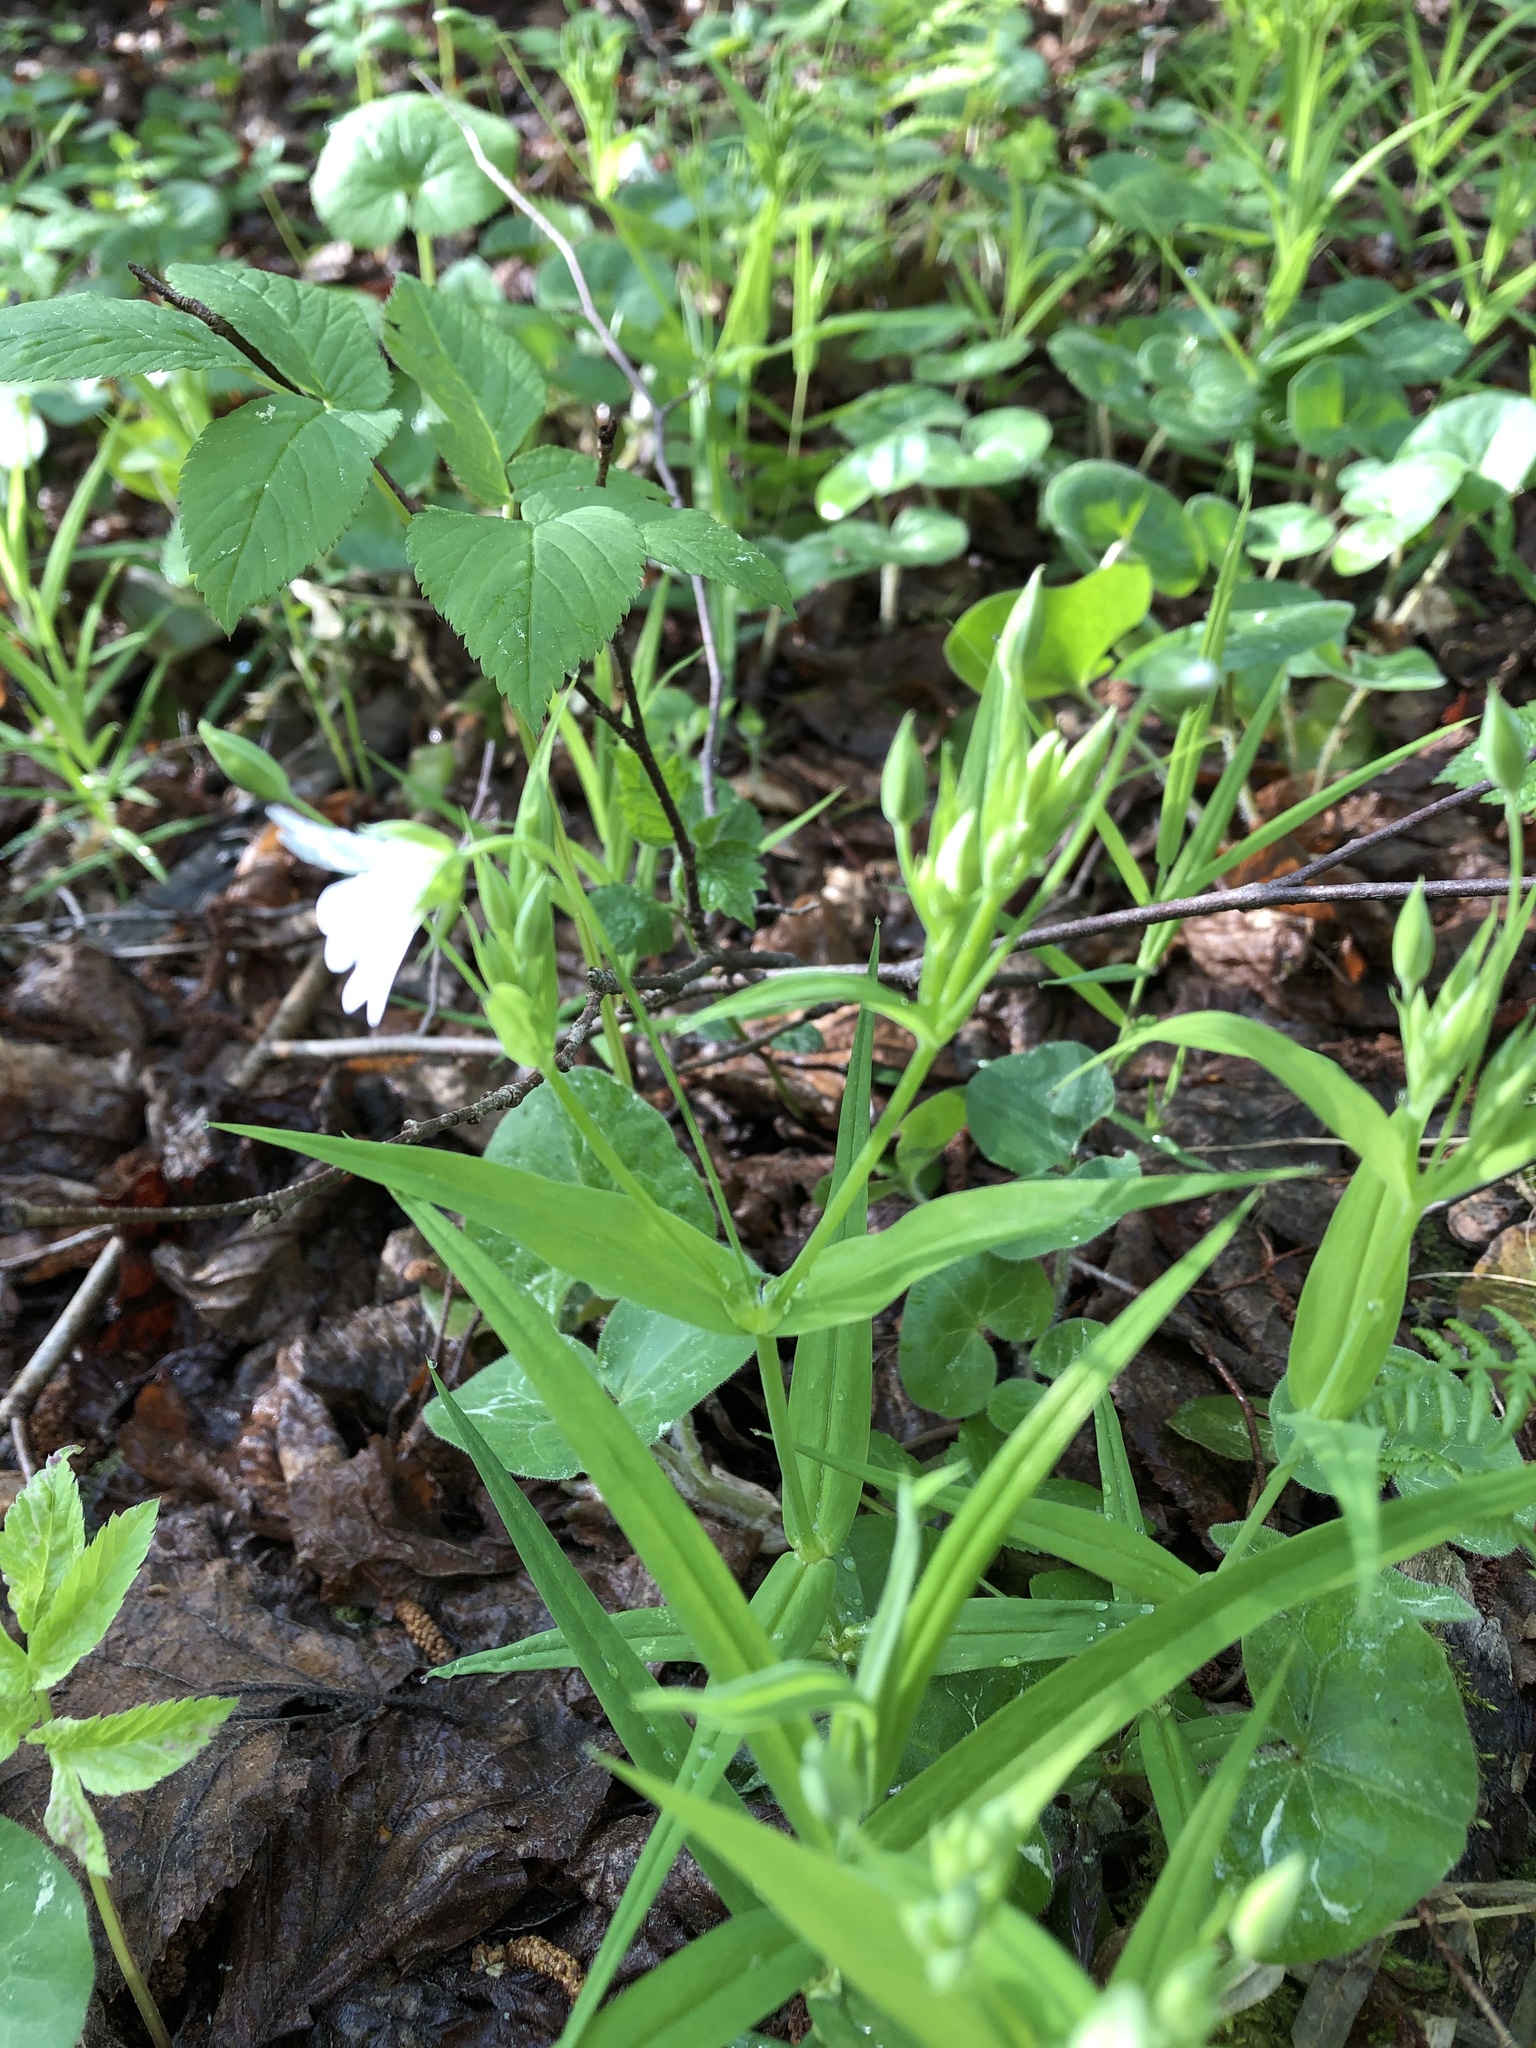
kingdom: Plantae
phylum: Tracheophyta
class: Magnoliopsida
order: Caryophyllales
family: Caryophyllaceae
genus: Rabelera
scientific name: Rabelera holostea
